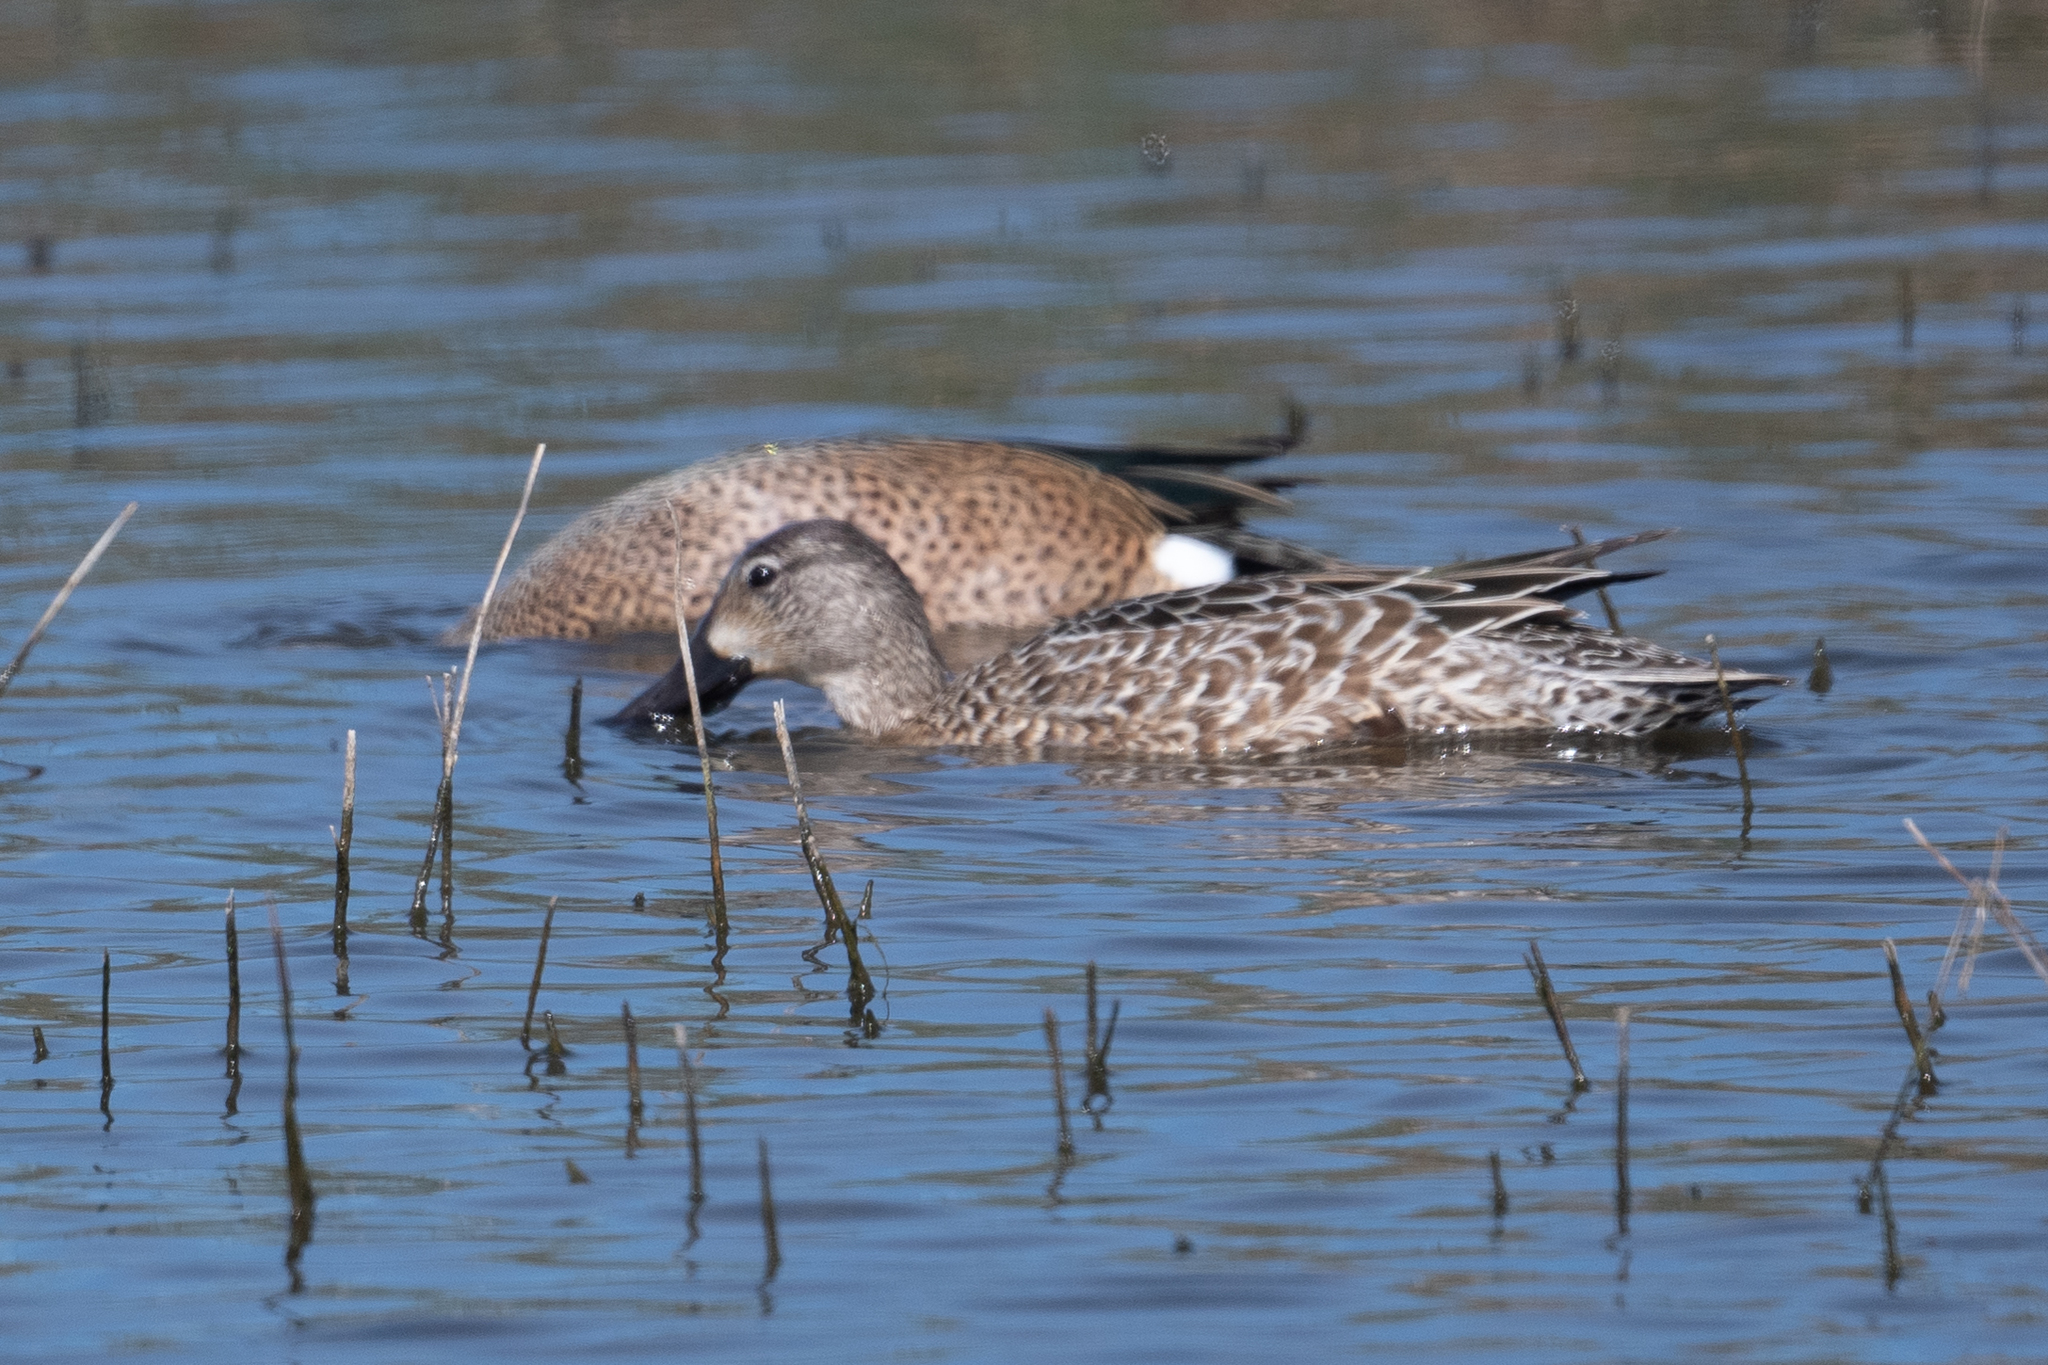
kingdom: Animalia
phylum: Chordata
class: Aves
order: Anseriformes
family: Anatidae
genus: Spatula
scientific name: Spatula discors
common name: Blue-winged teal
